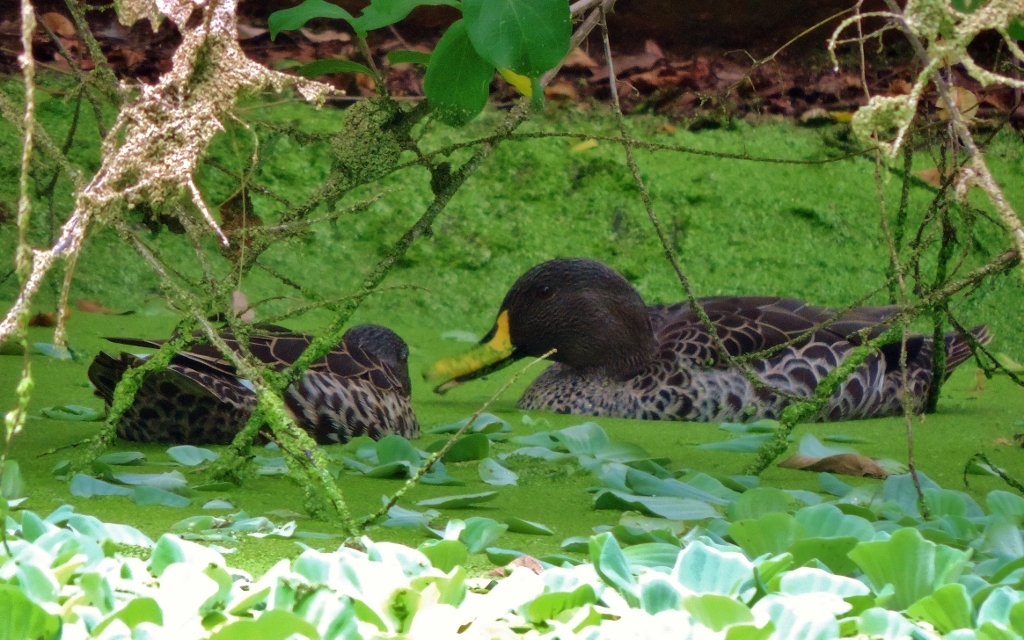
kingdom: Animalia
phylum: Chordata
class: Aves
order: Anseriformes
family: Anatidae
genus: Anas
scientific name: Anas undulata
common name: Yellow-billed duck
